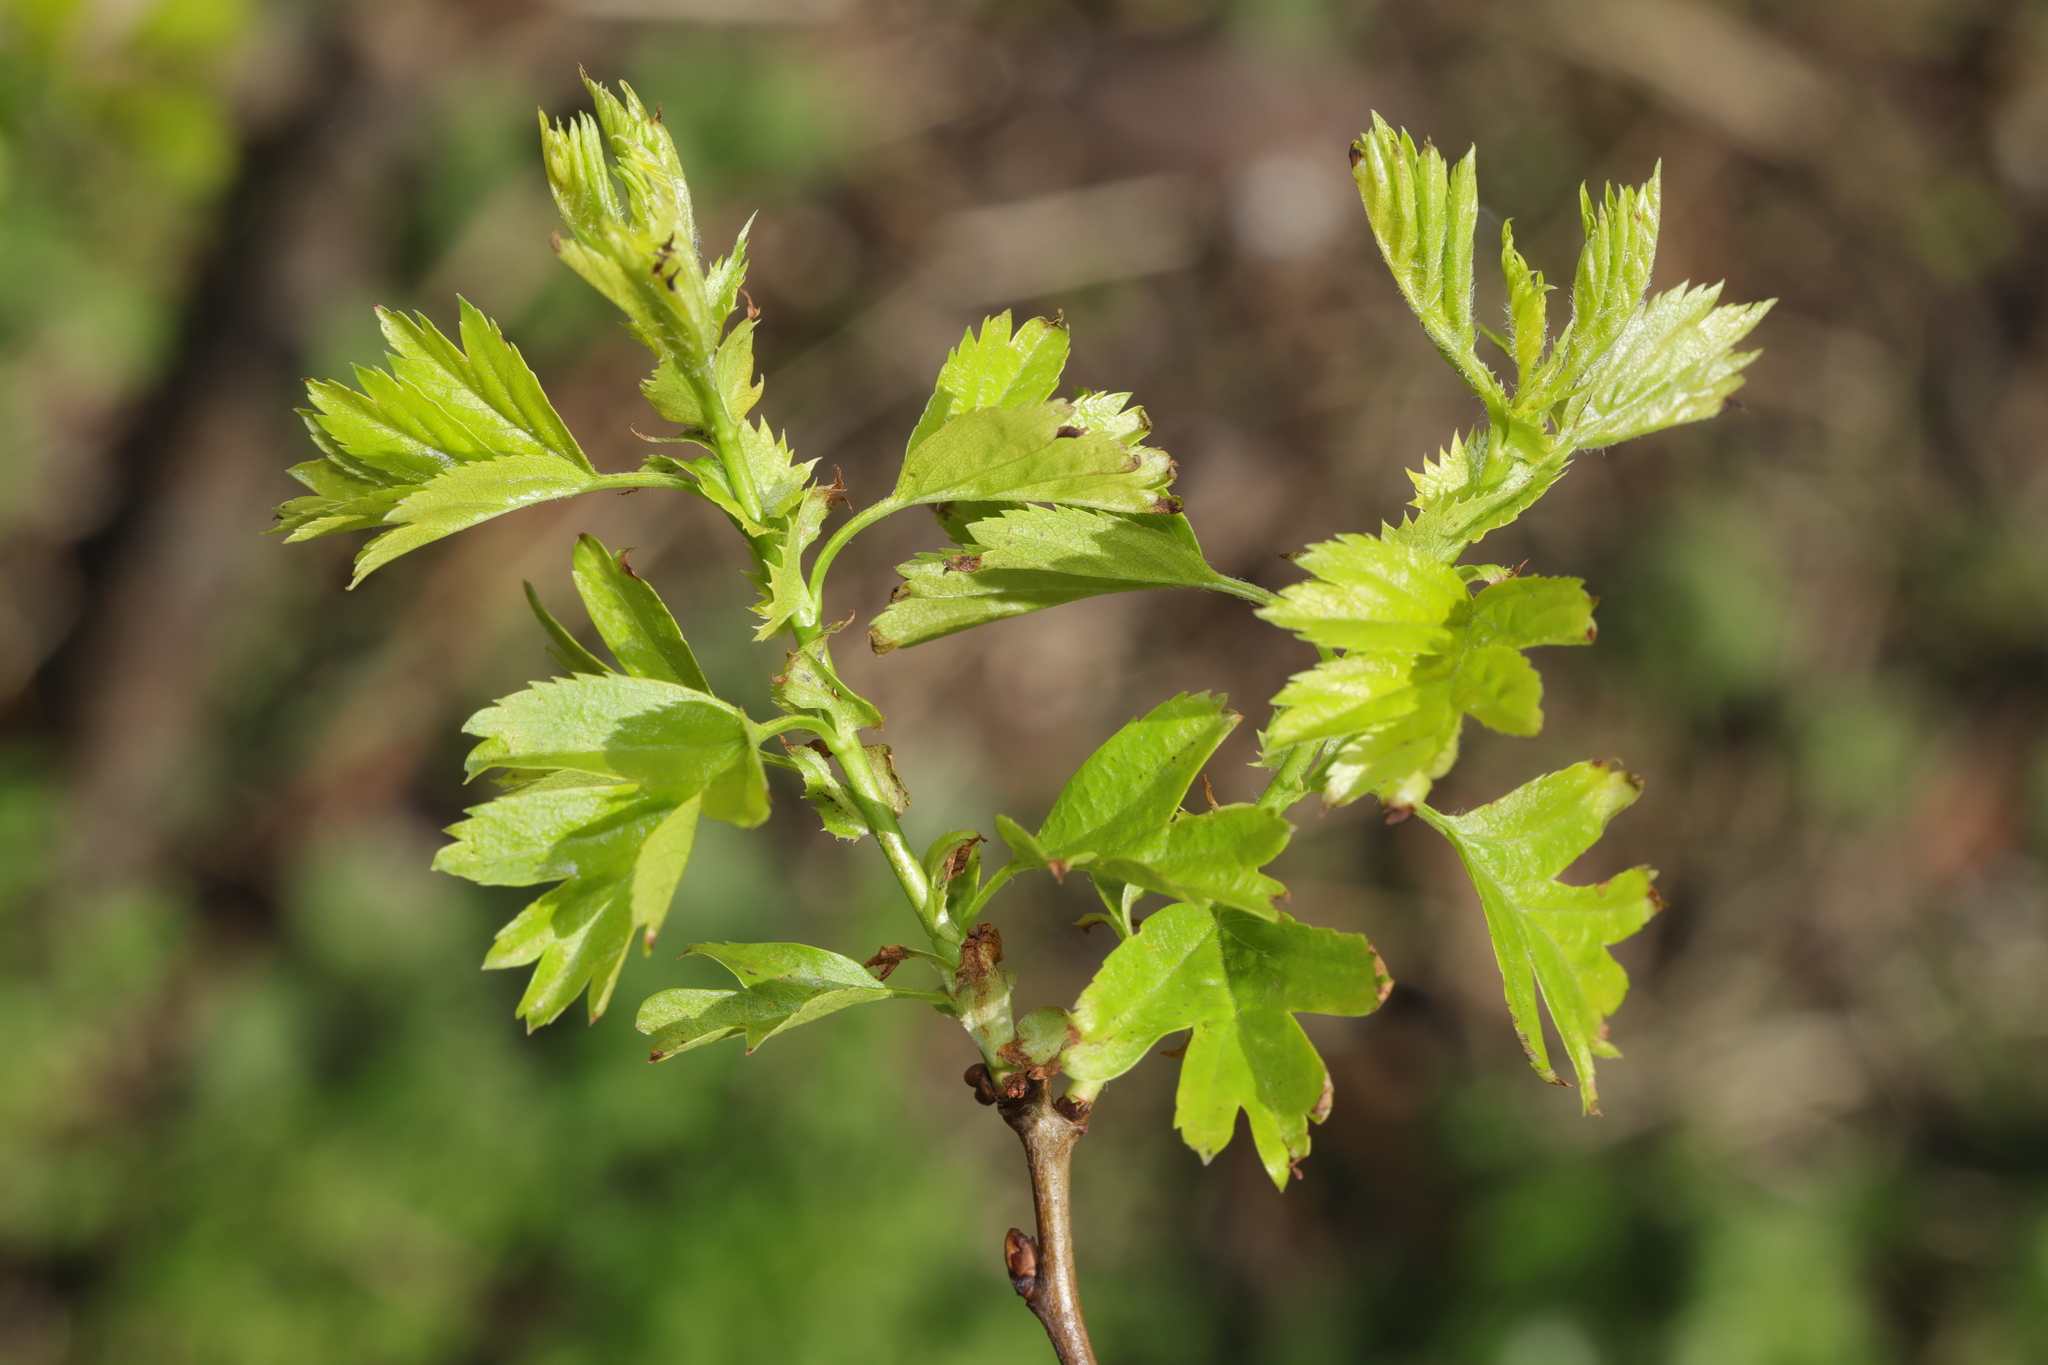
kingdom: Plantae
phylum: Tracheophyta
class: Magnoliopsida
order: Rosales
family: Rosaceae
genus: Crataegus
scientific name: Crataegus monogyna
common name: Hawthorn
